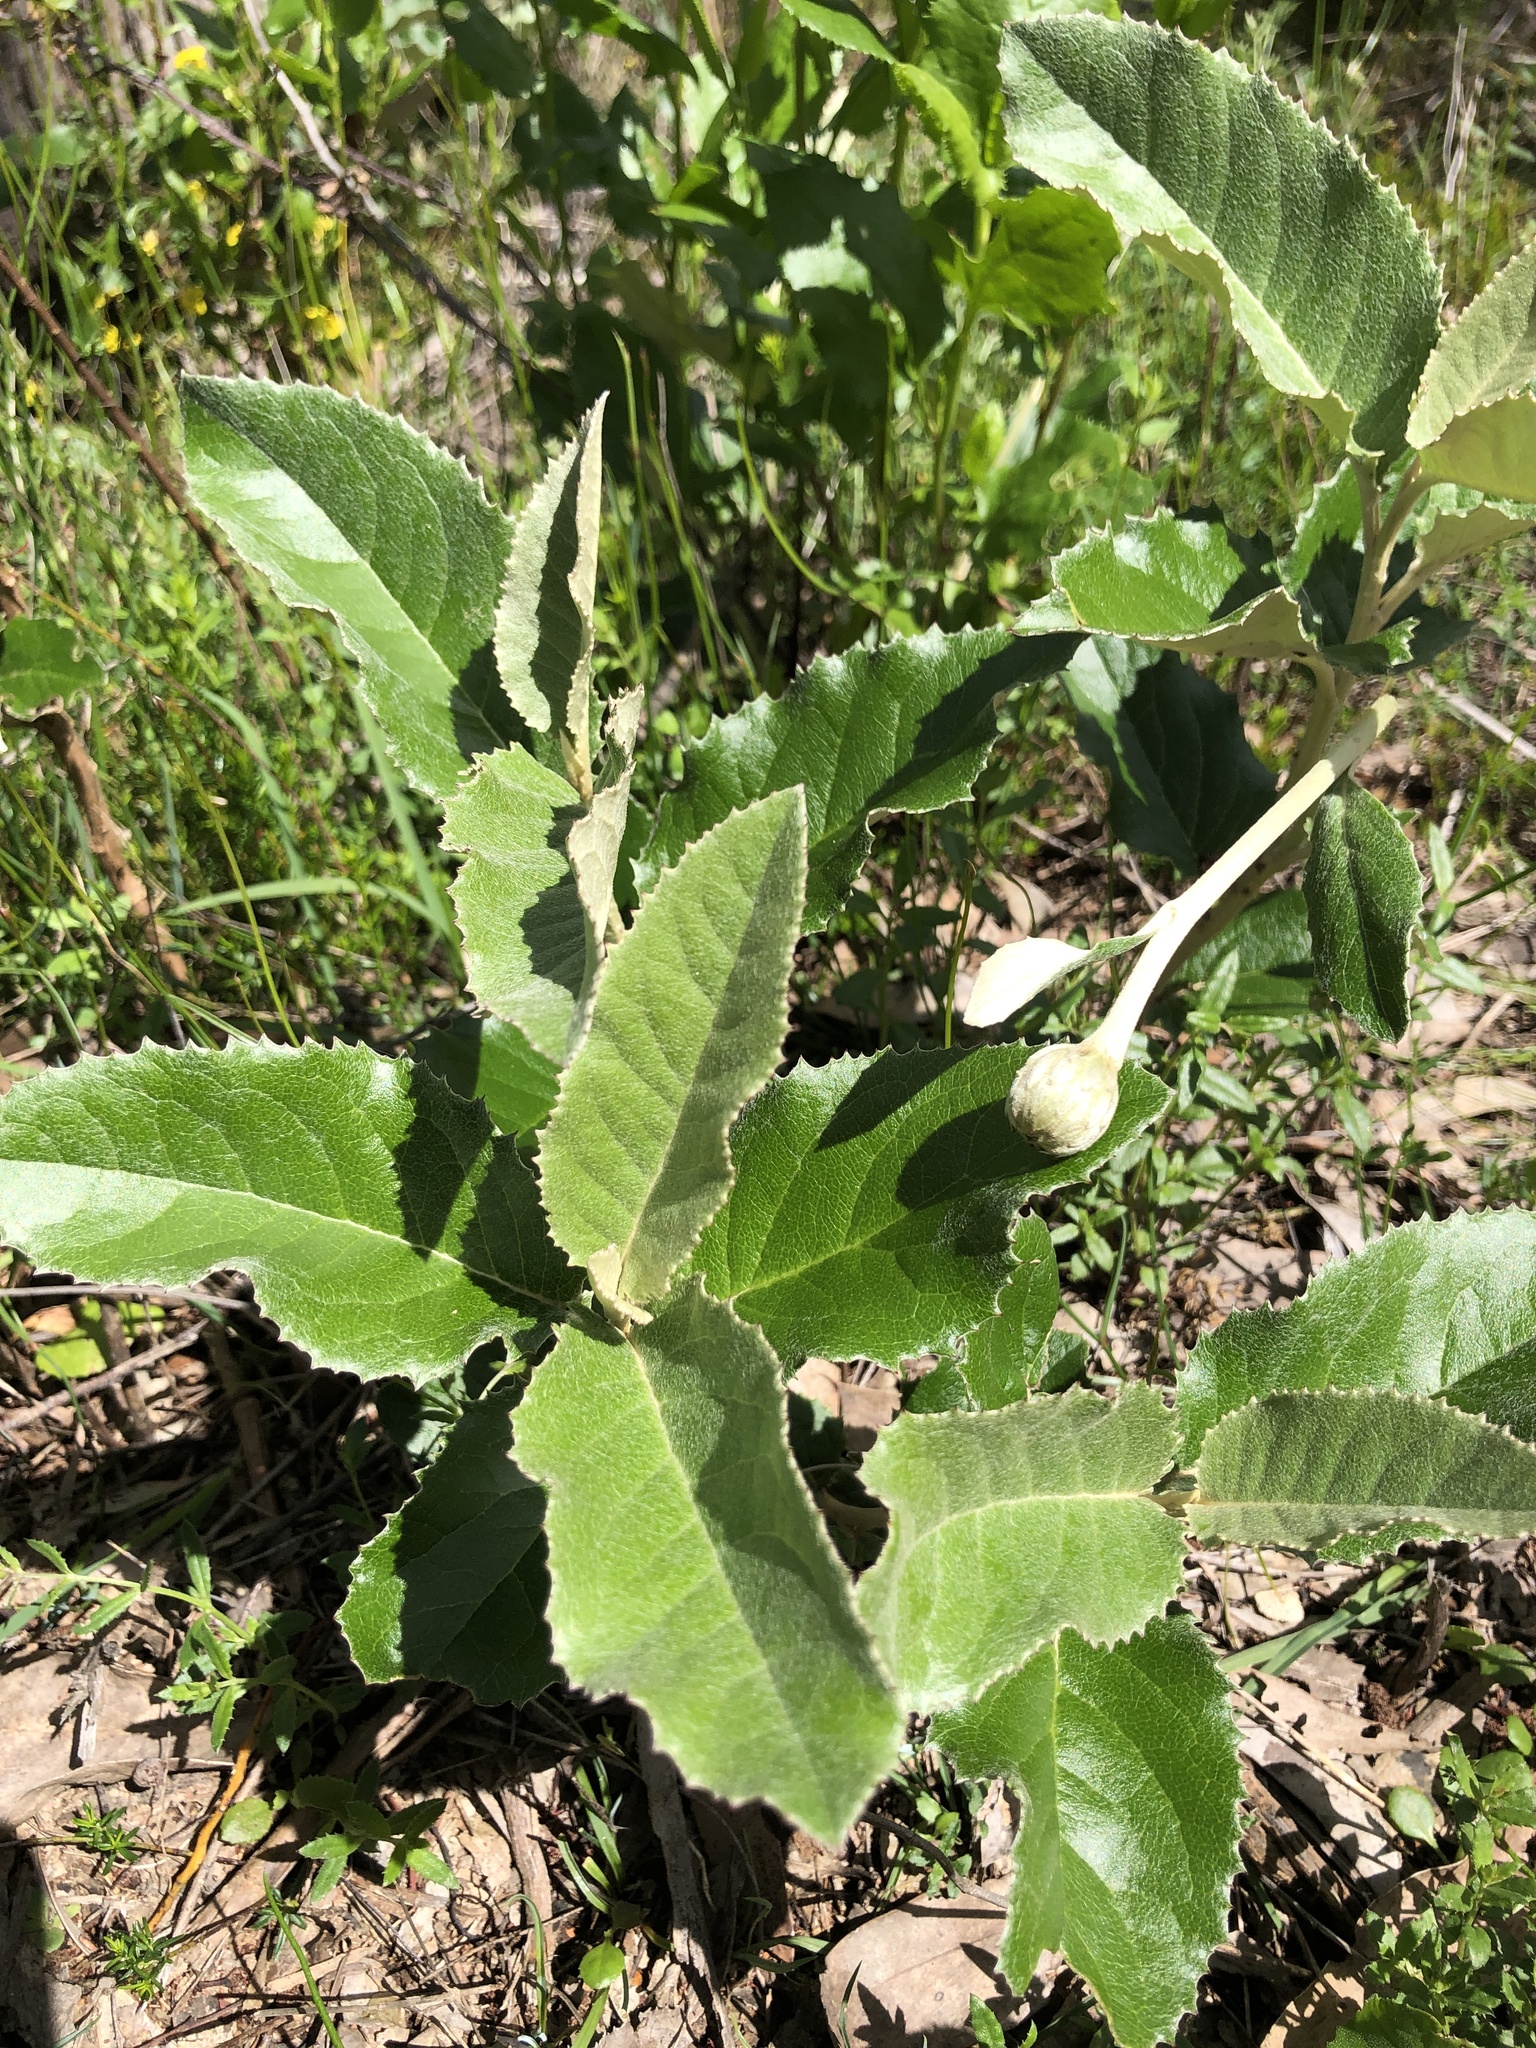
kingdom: Plantae
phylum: Tracheophyta
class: Magnoliopsida
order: Asterales
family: Asteraceae
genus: Olearia
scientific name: Olearia grandiflora
